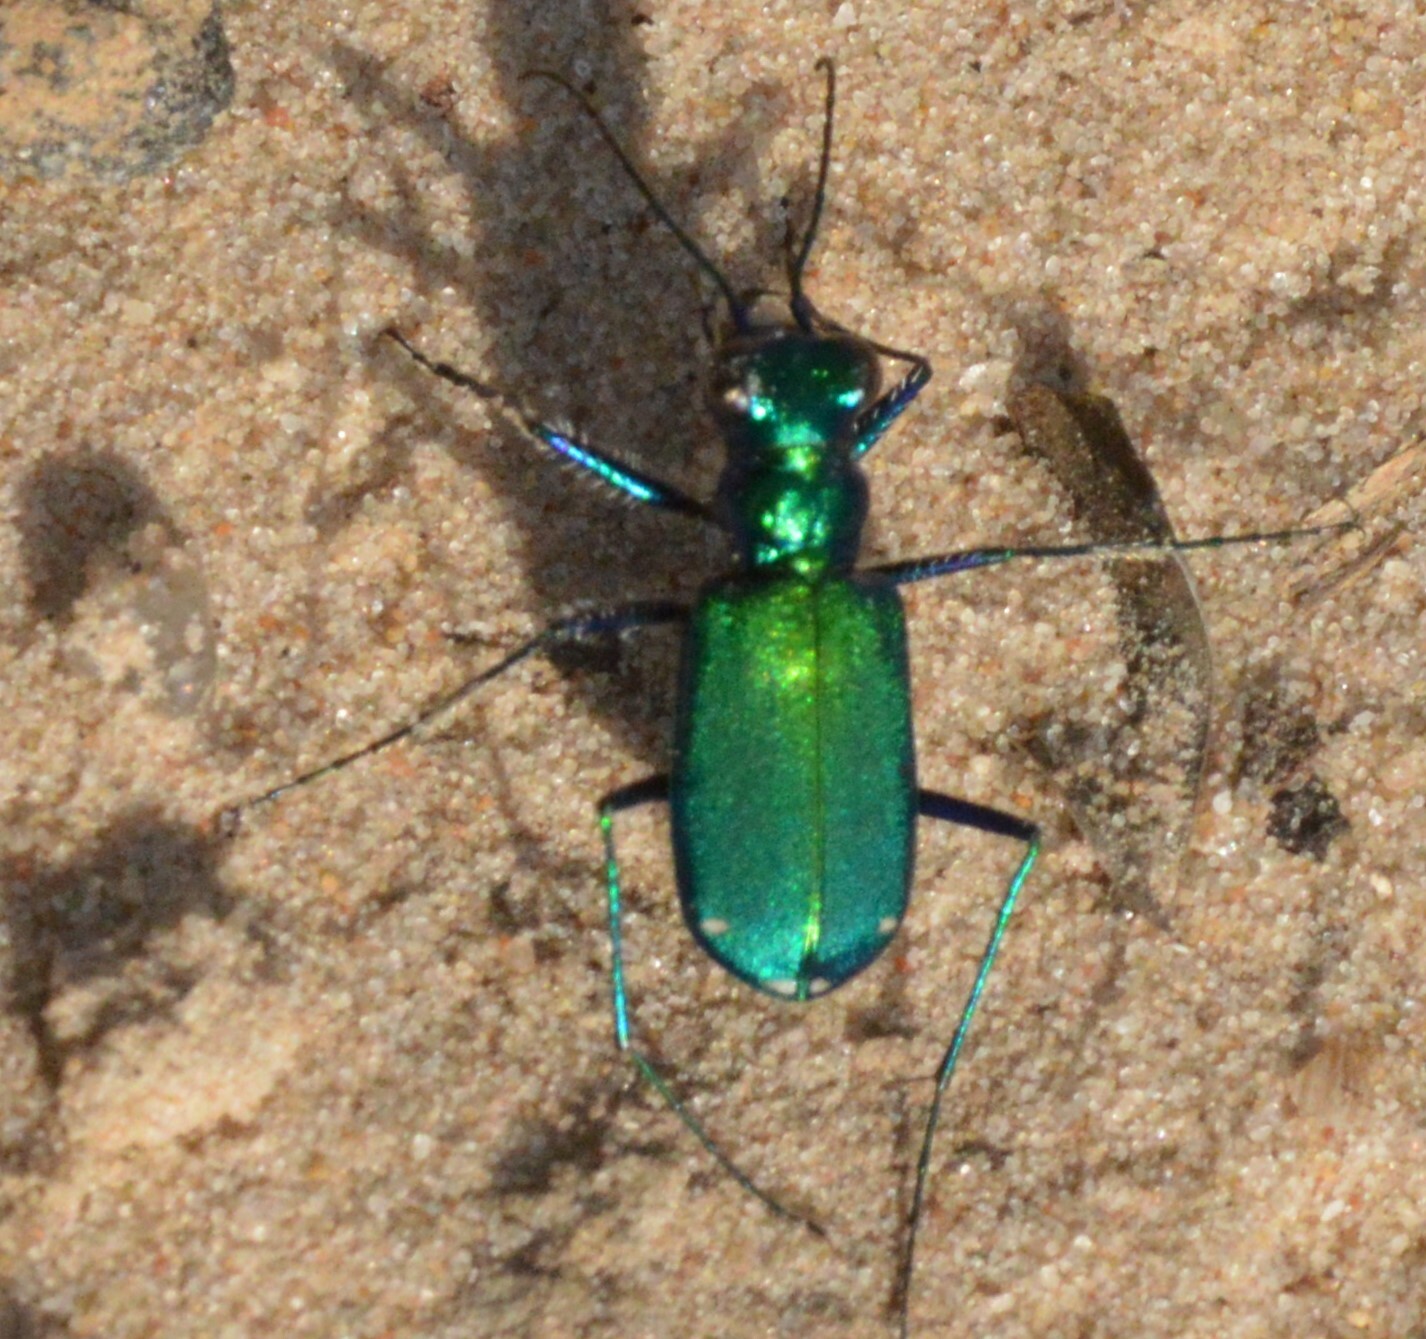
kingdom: Animalia
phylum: Arthropoda
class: Insecta
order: Coleoptera
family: Carabidae
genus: Cicindela
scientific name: Cicindela sexguttata
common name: Six-spotted tiger beetle
